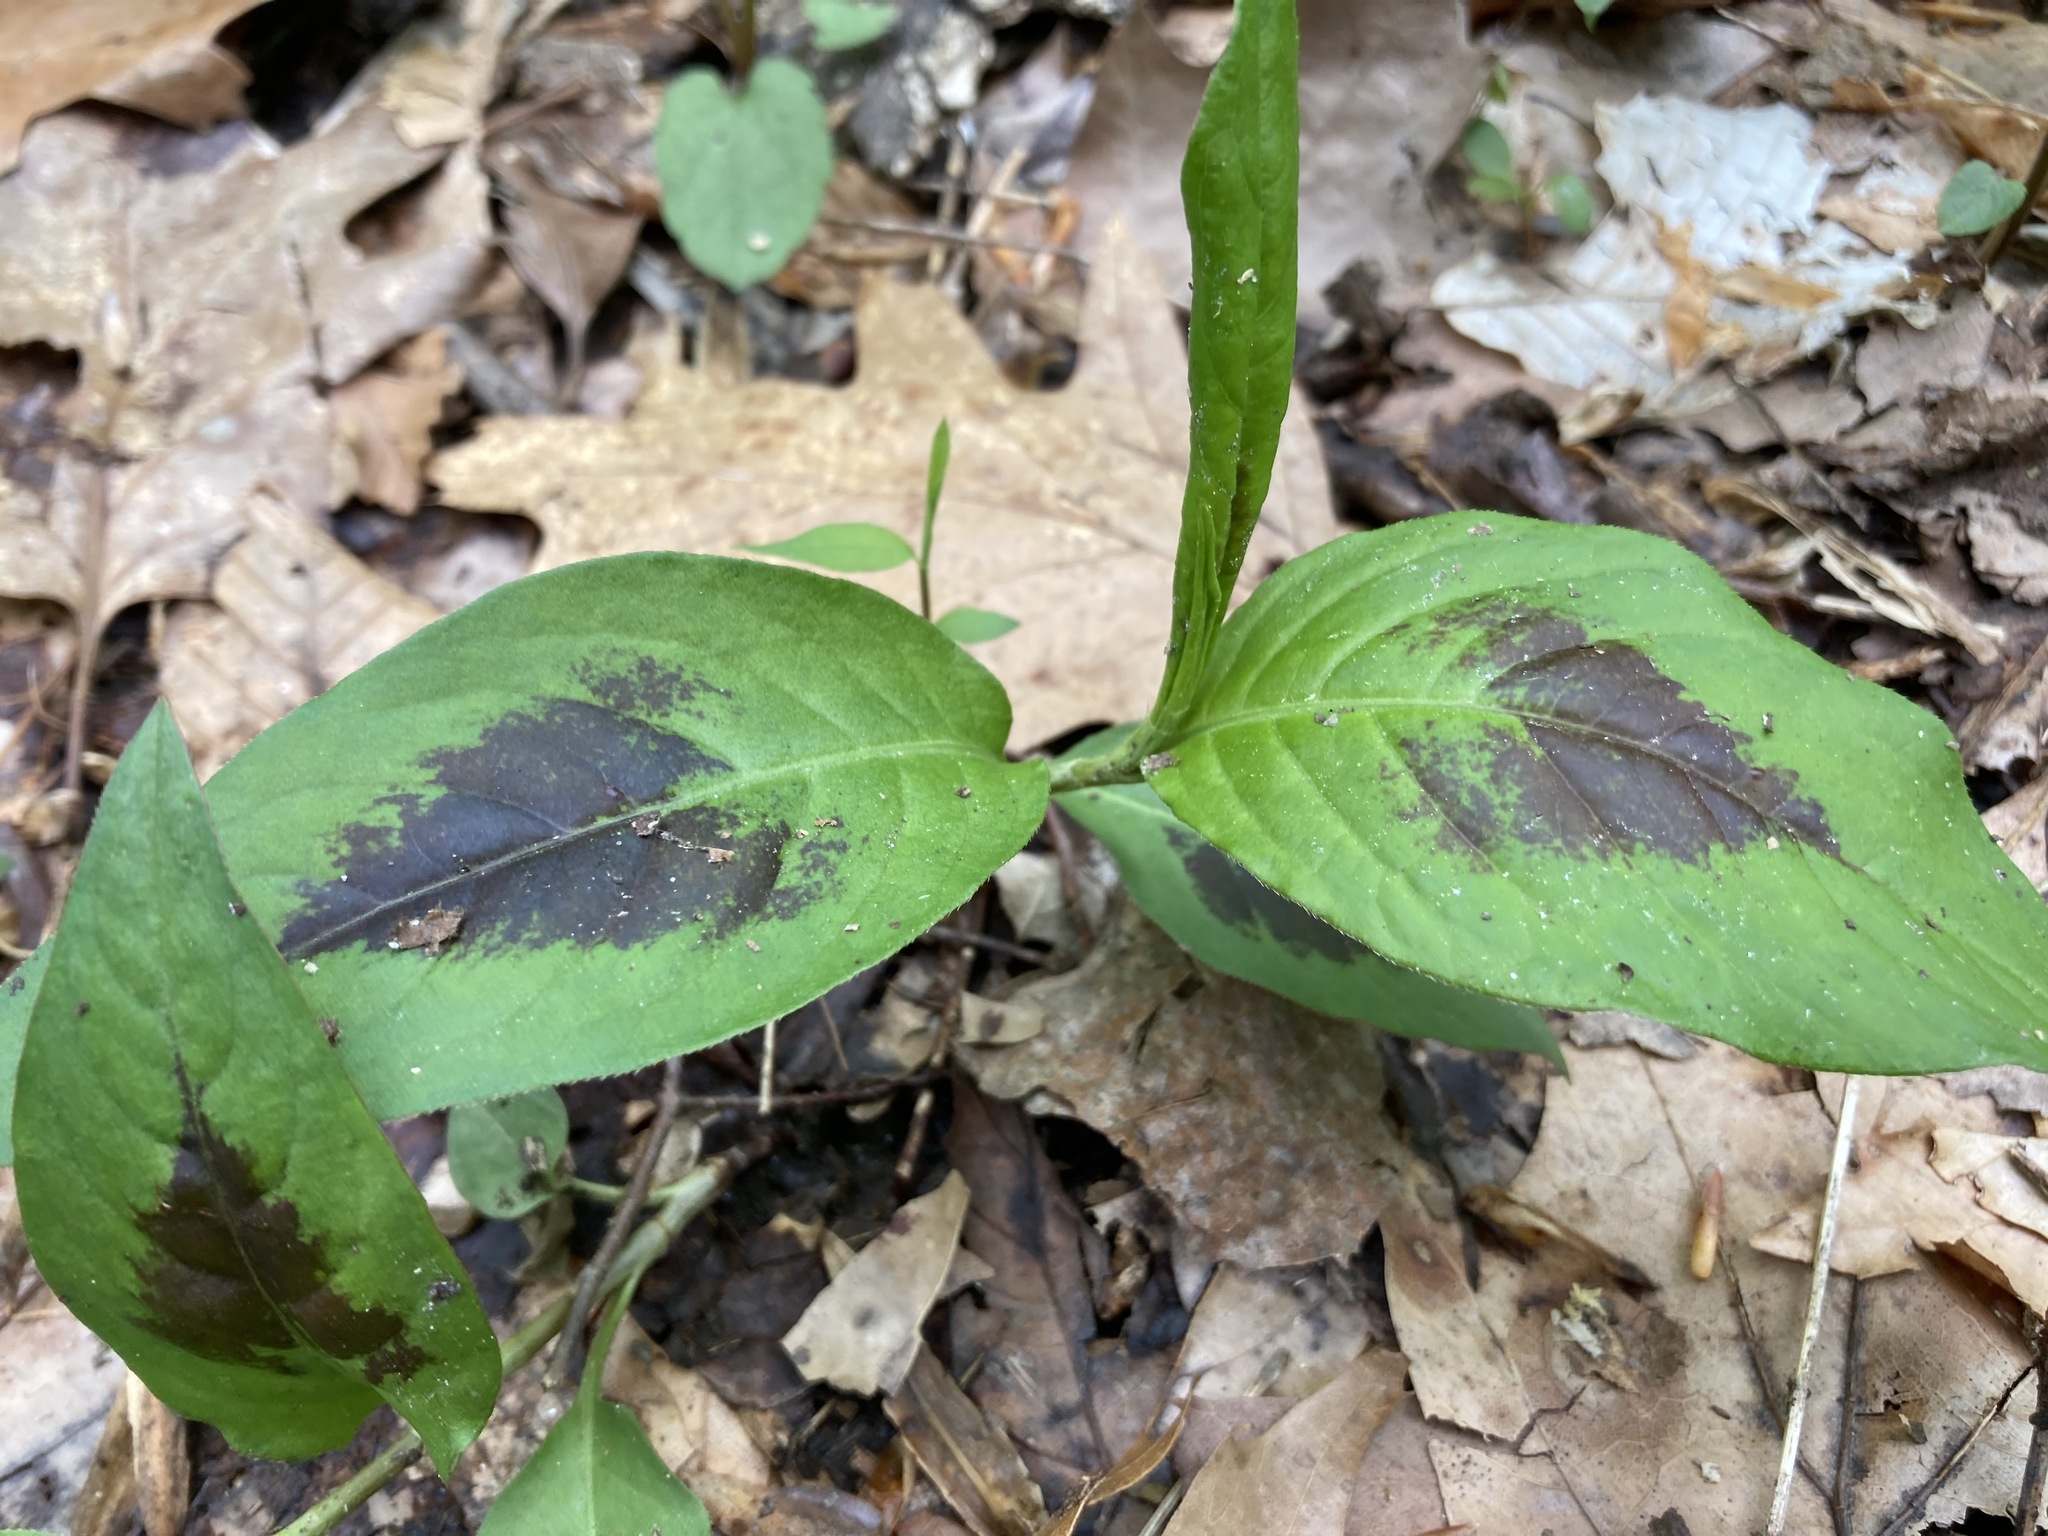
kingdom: Plantae
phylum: Tracheophyta
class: Magnoliopsida
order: Caryophyllales
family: Polygonaceae
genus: Persicaria
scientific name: Persicaria virginiana
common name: Jumpseed
